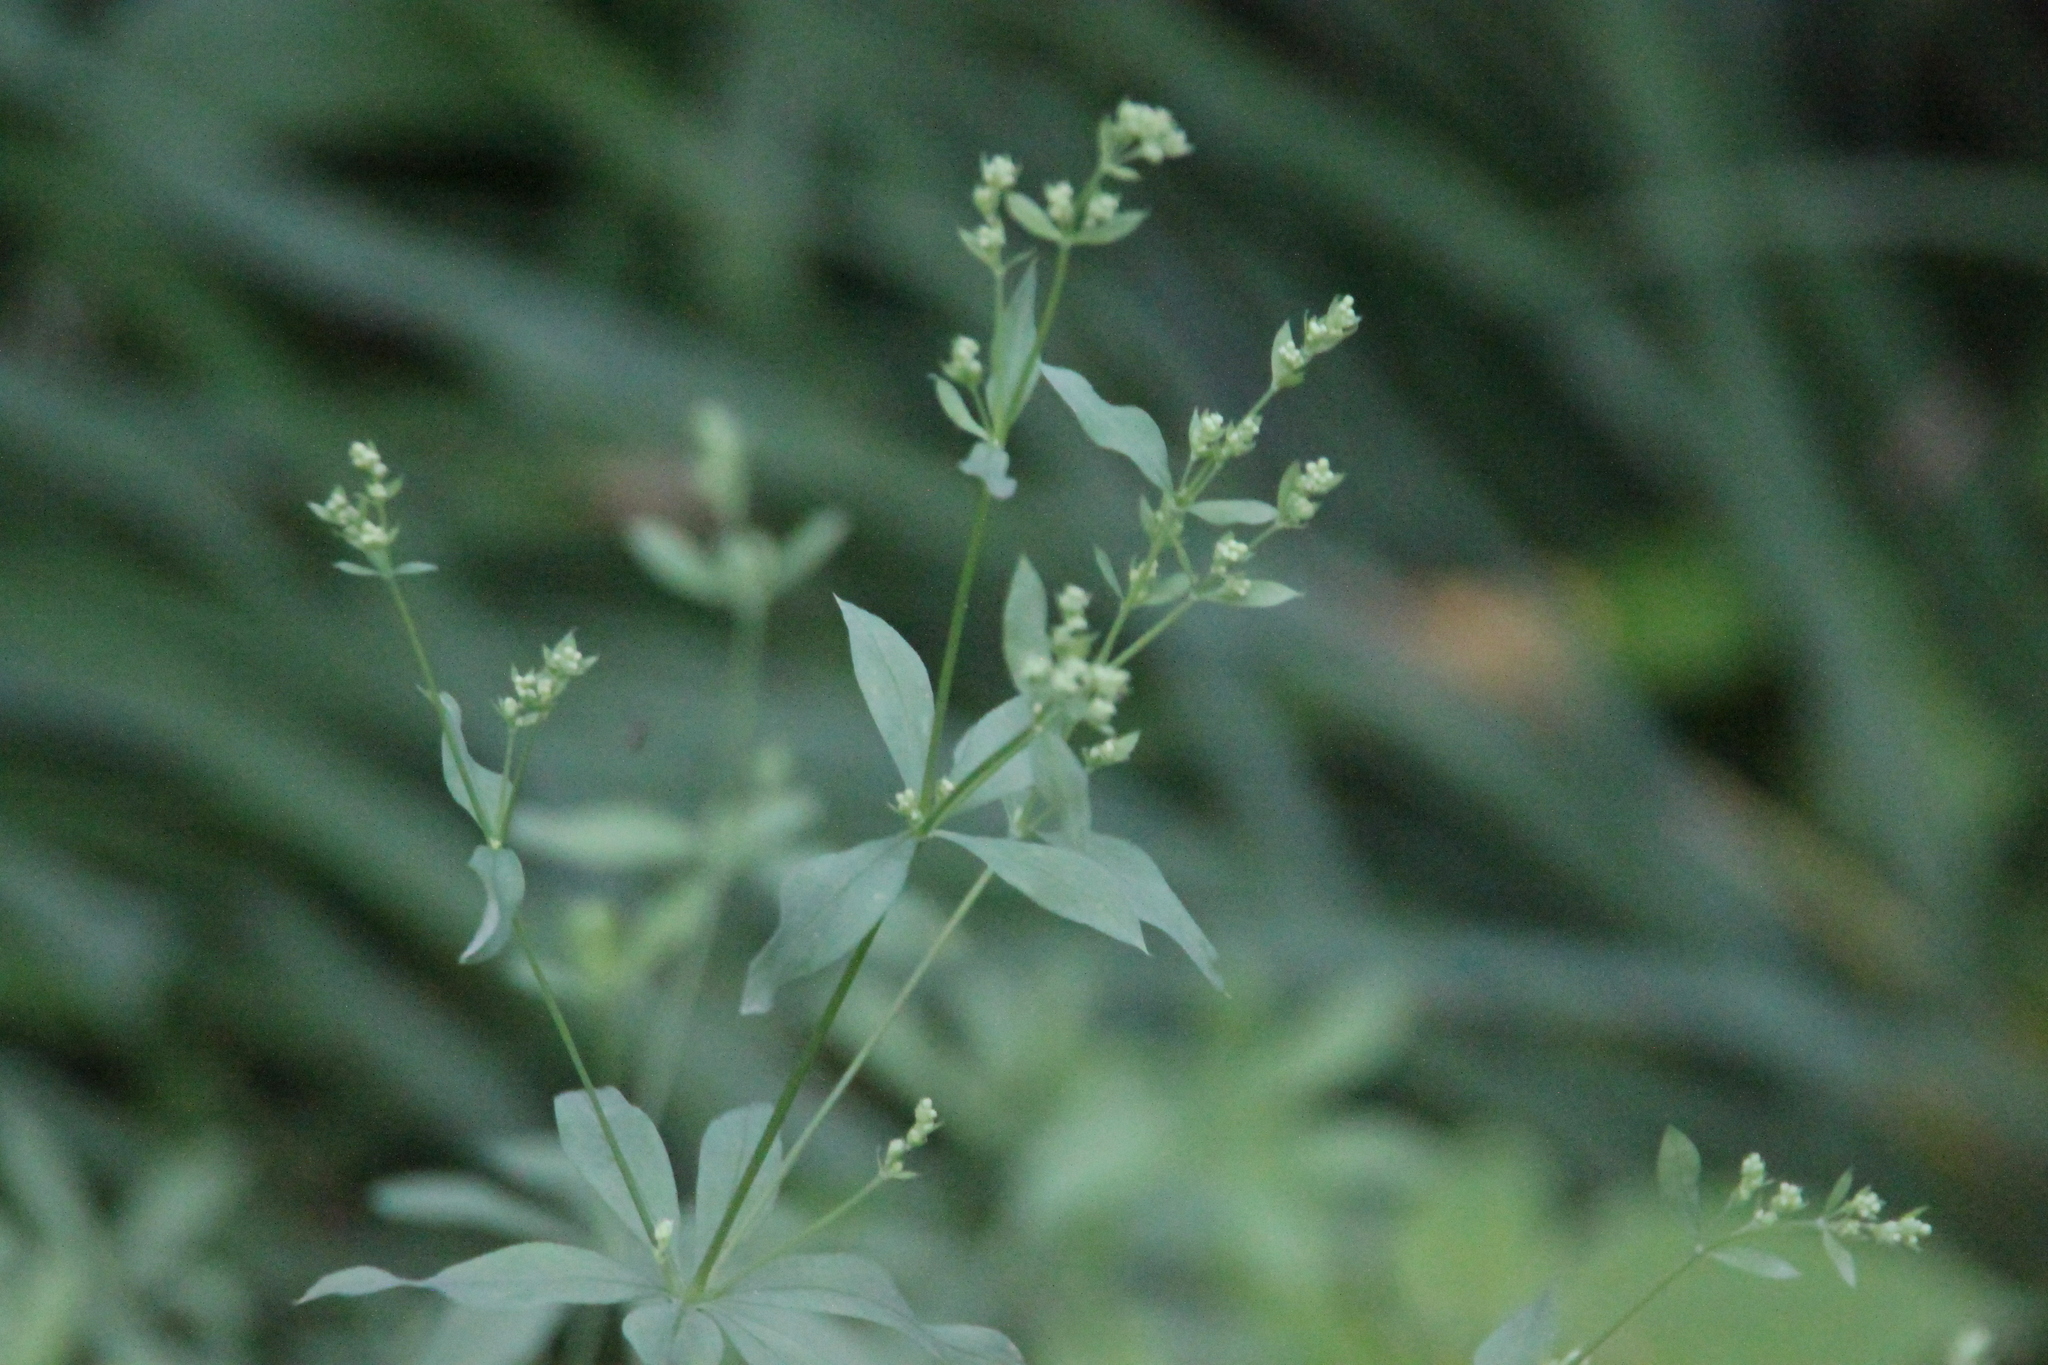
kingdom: Plantae
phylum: Tracheophyta
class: Magnoliopsida
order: Gentianales
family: Rubiaceae
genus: Galium
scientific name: Galium intermedium
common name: Bedstraw
